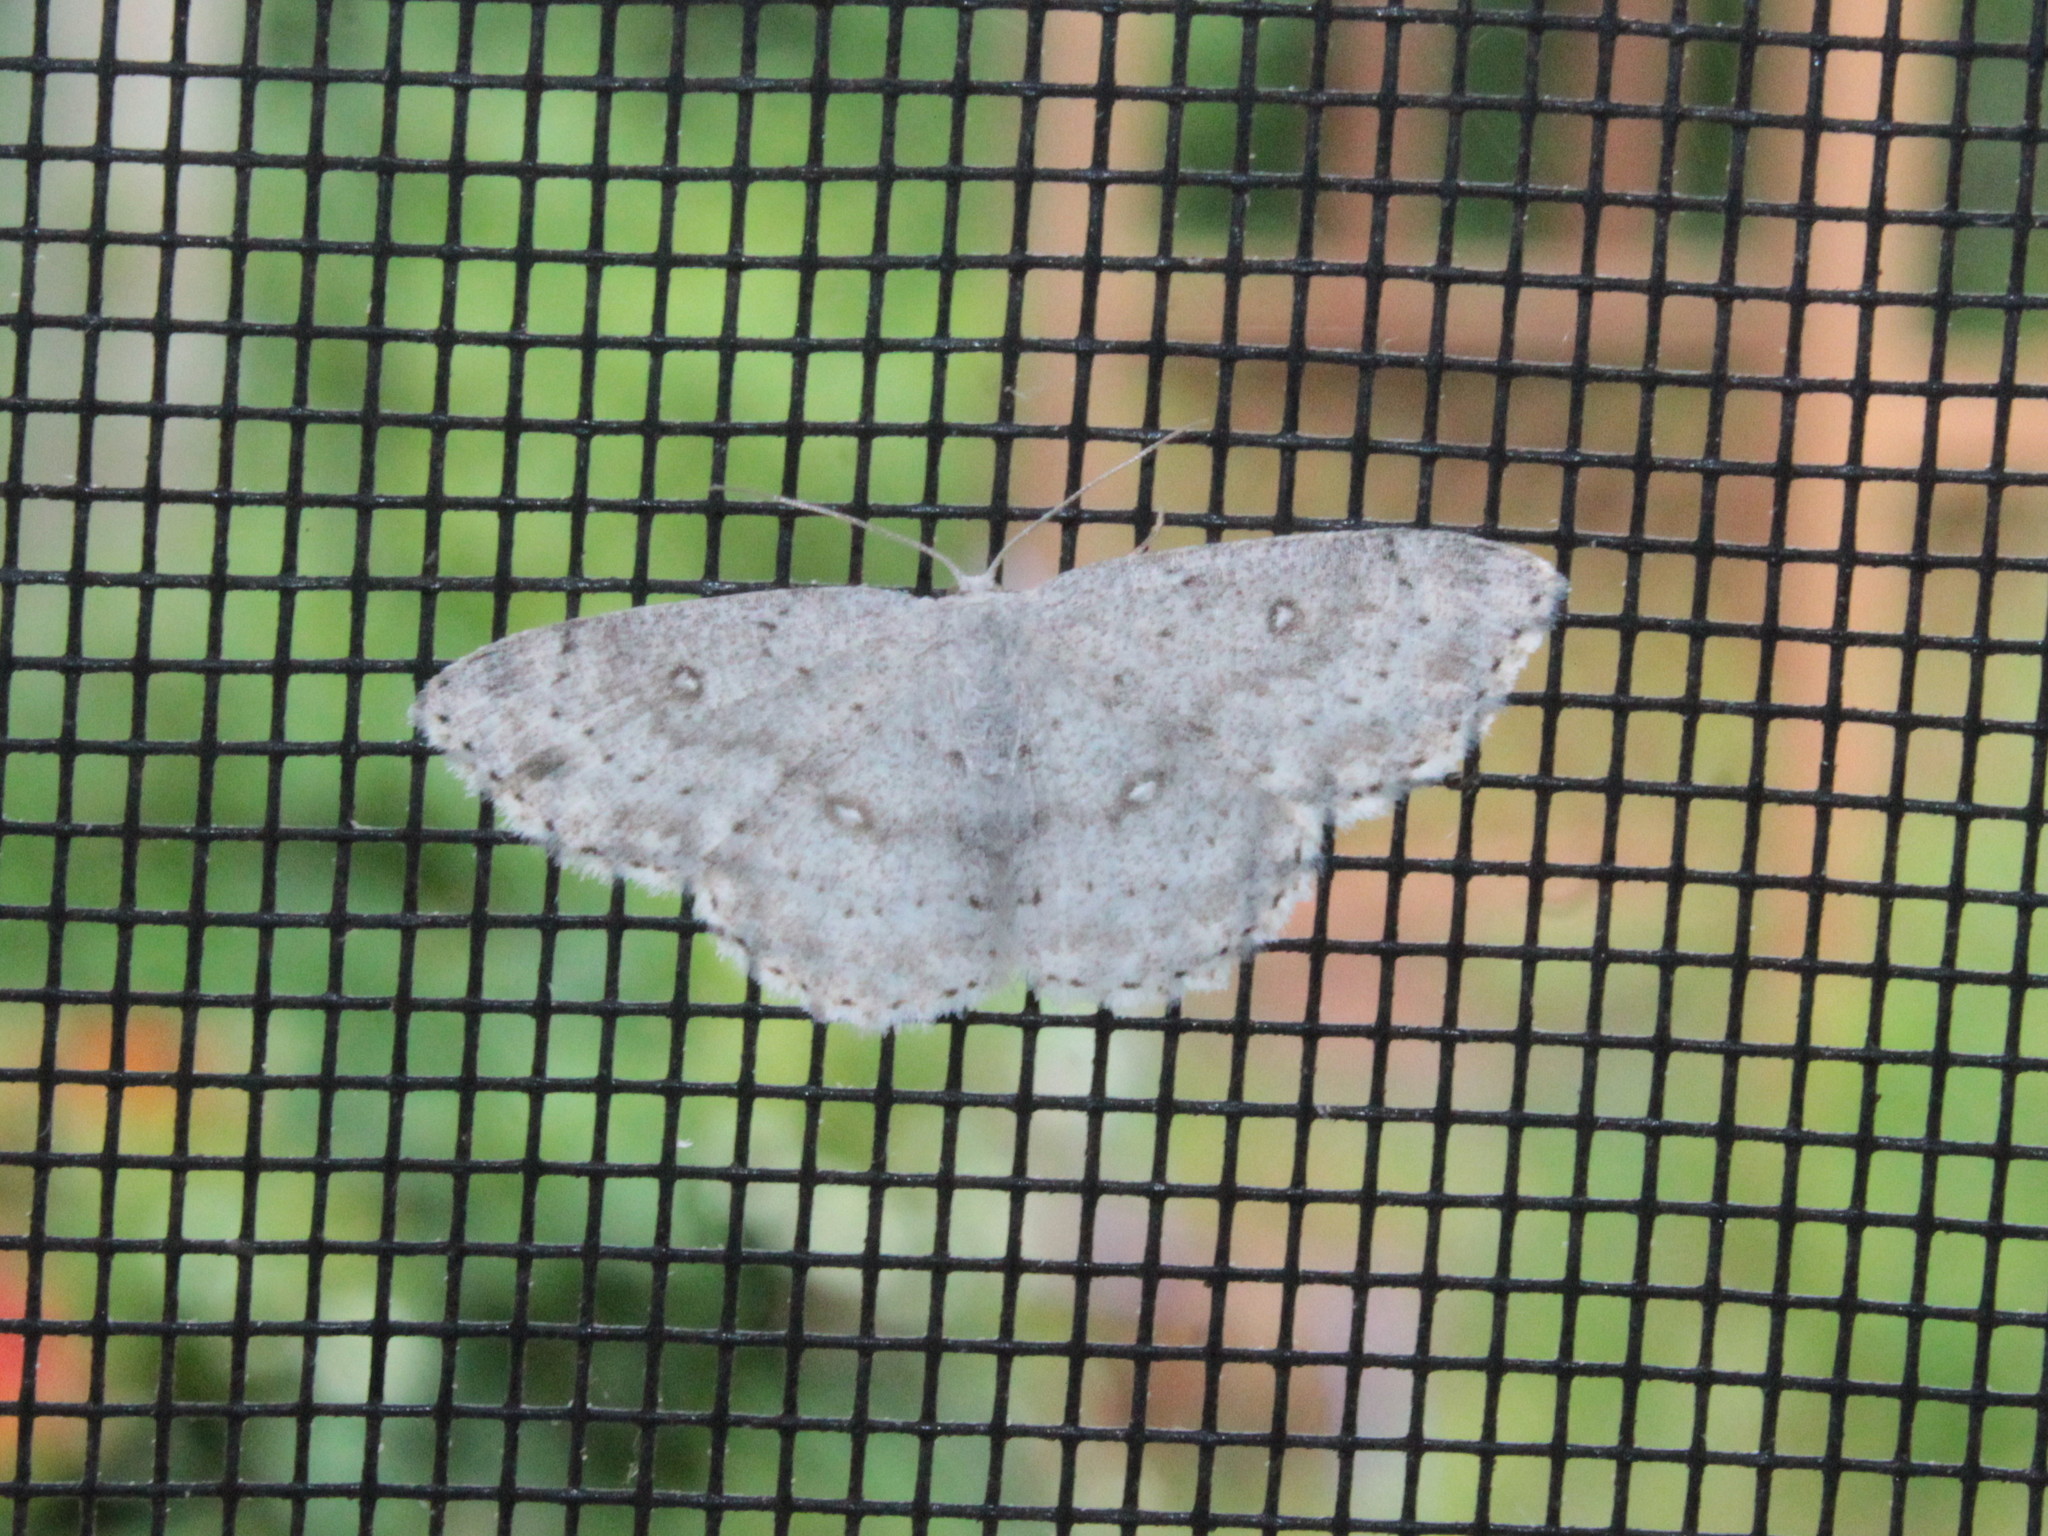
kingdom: Animalia
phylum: Arthropoda
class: Insecta
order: Lepidoptera
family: Geometridae
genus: Cyclophora
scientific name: Cyclophora pendulinaria
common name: Sweet fern geometer
